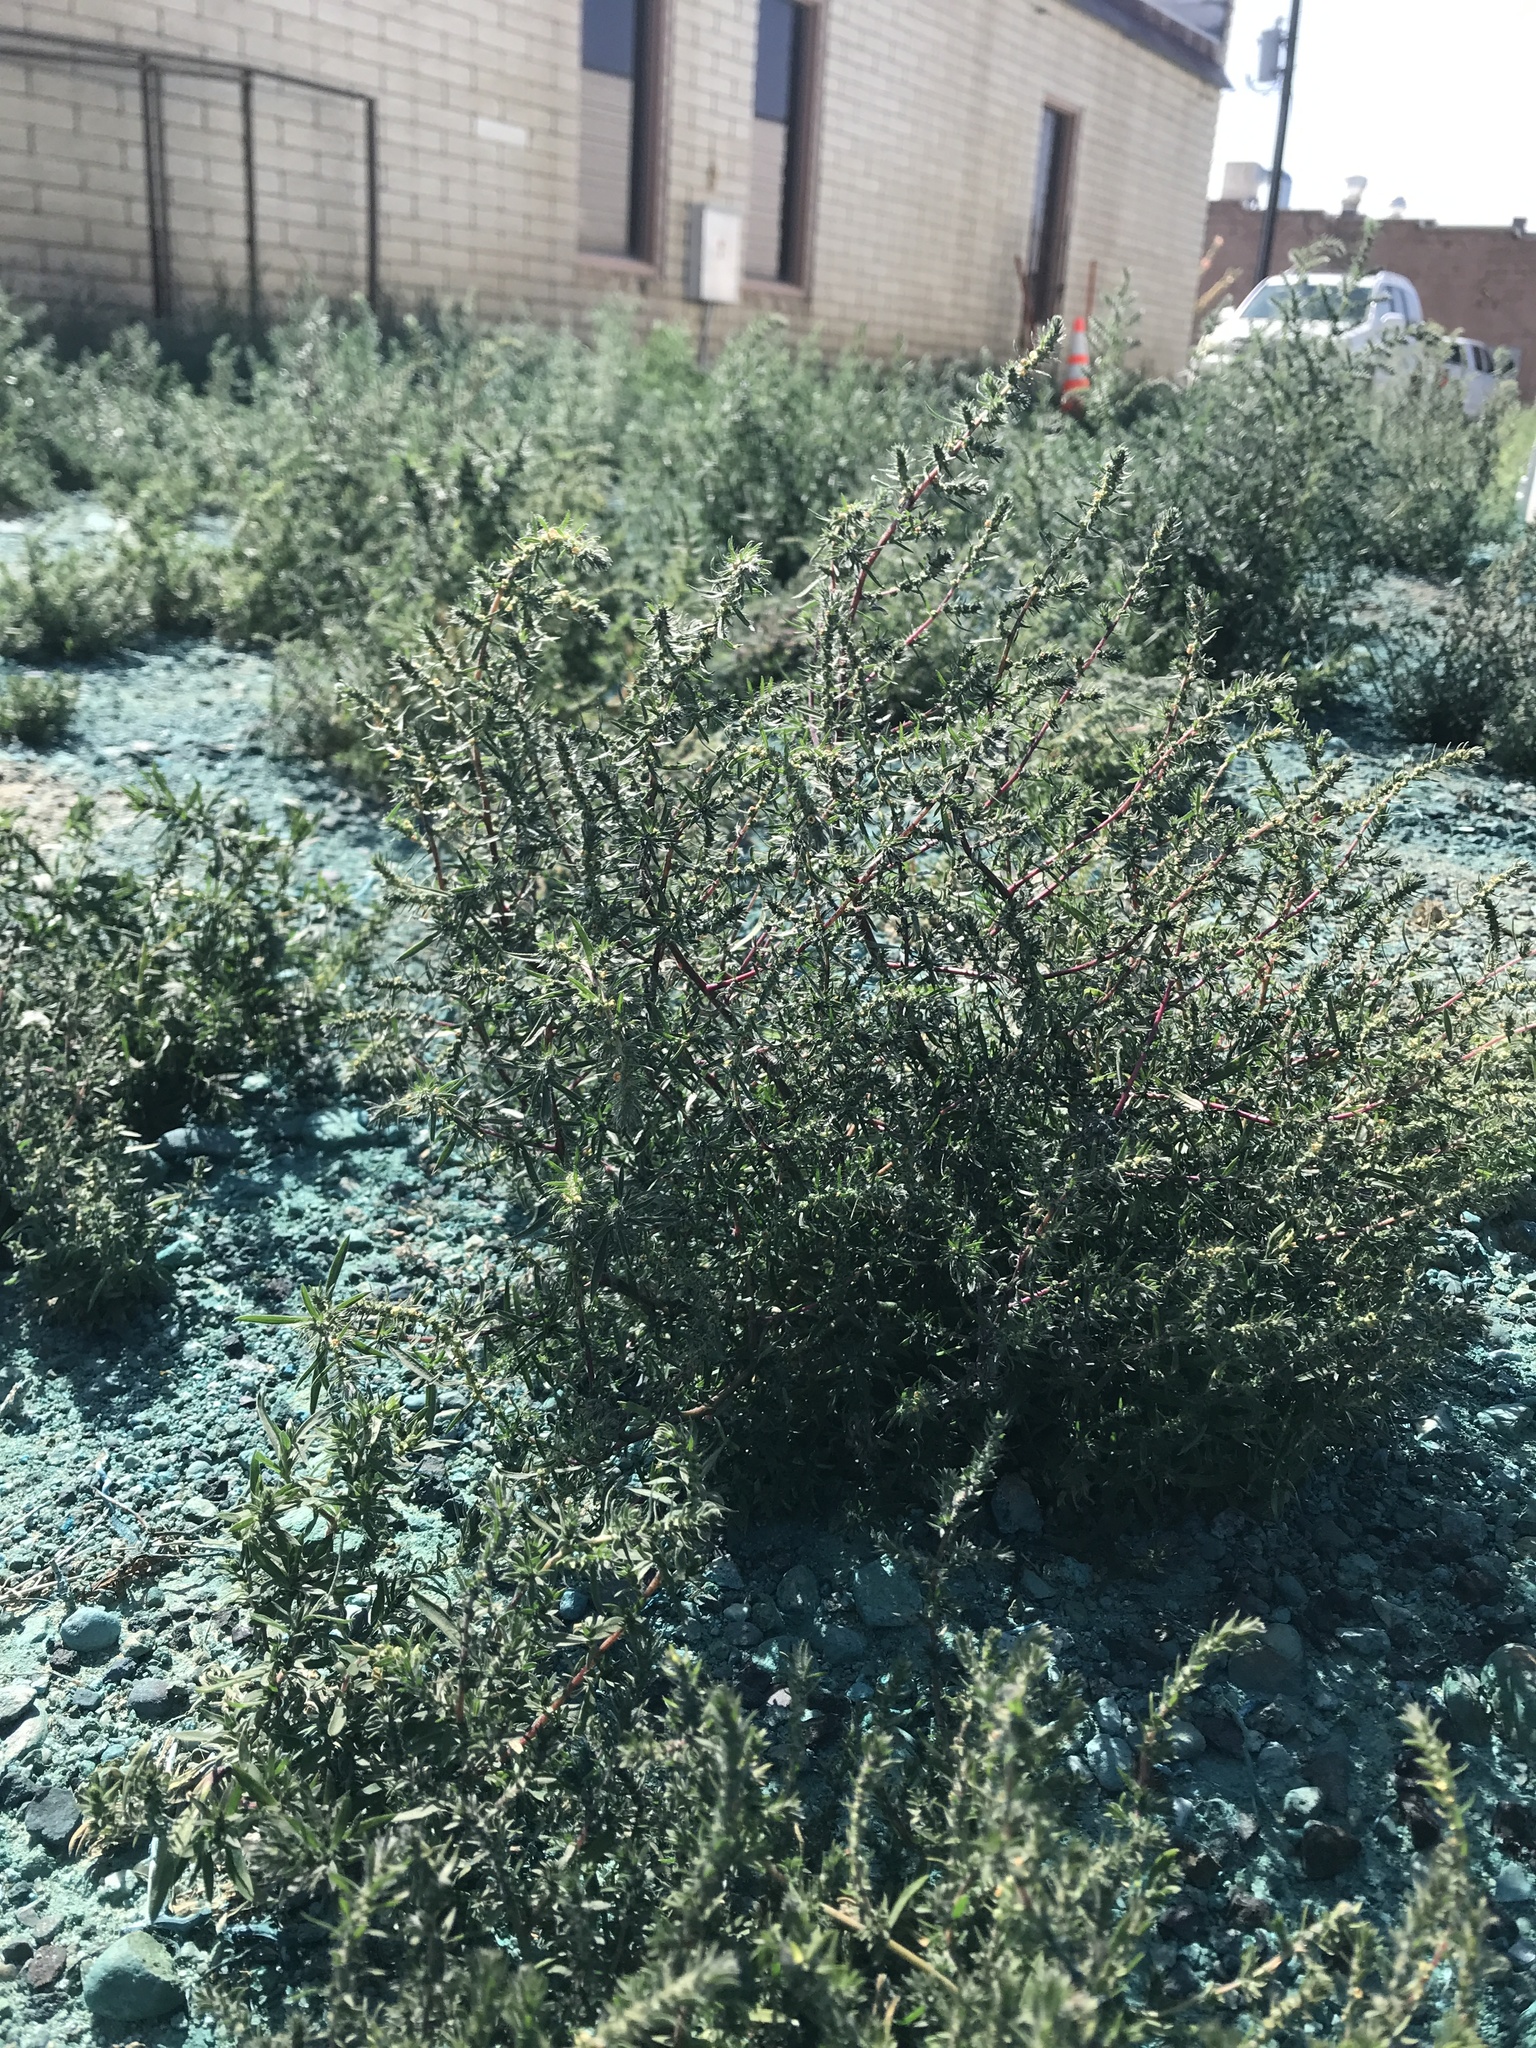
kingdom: Plantae
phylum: Tracheophyta
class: Magnoliopsida
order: Caryophyllales
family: Amaranthaceae
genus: Salsola
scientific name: Salsola tragus
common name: Prickly russian thistle
